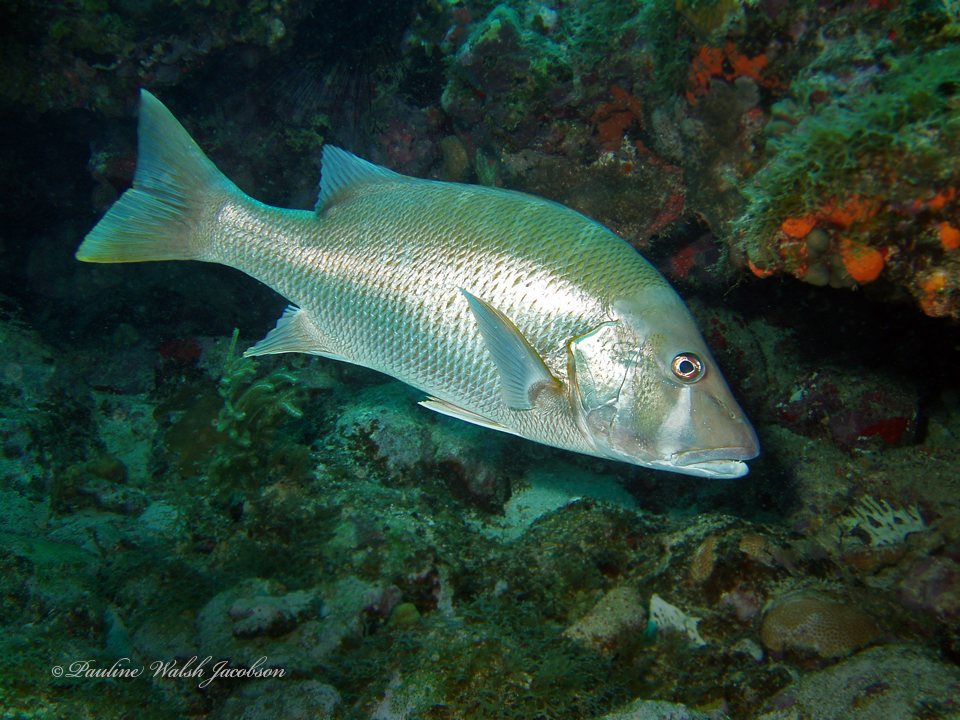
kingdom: Animalia
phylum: Chordata
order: Perciformes
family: Lutjanidae
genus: Lutjanus
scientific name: Lutjanus jocu
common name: Dog snapper
